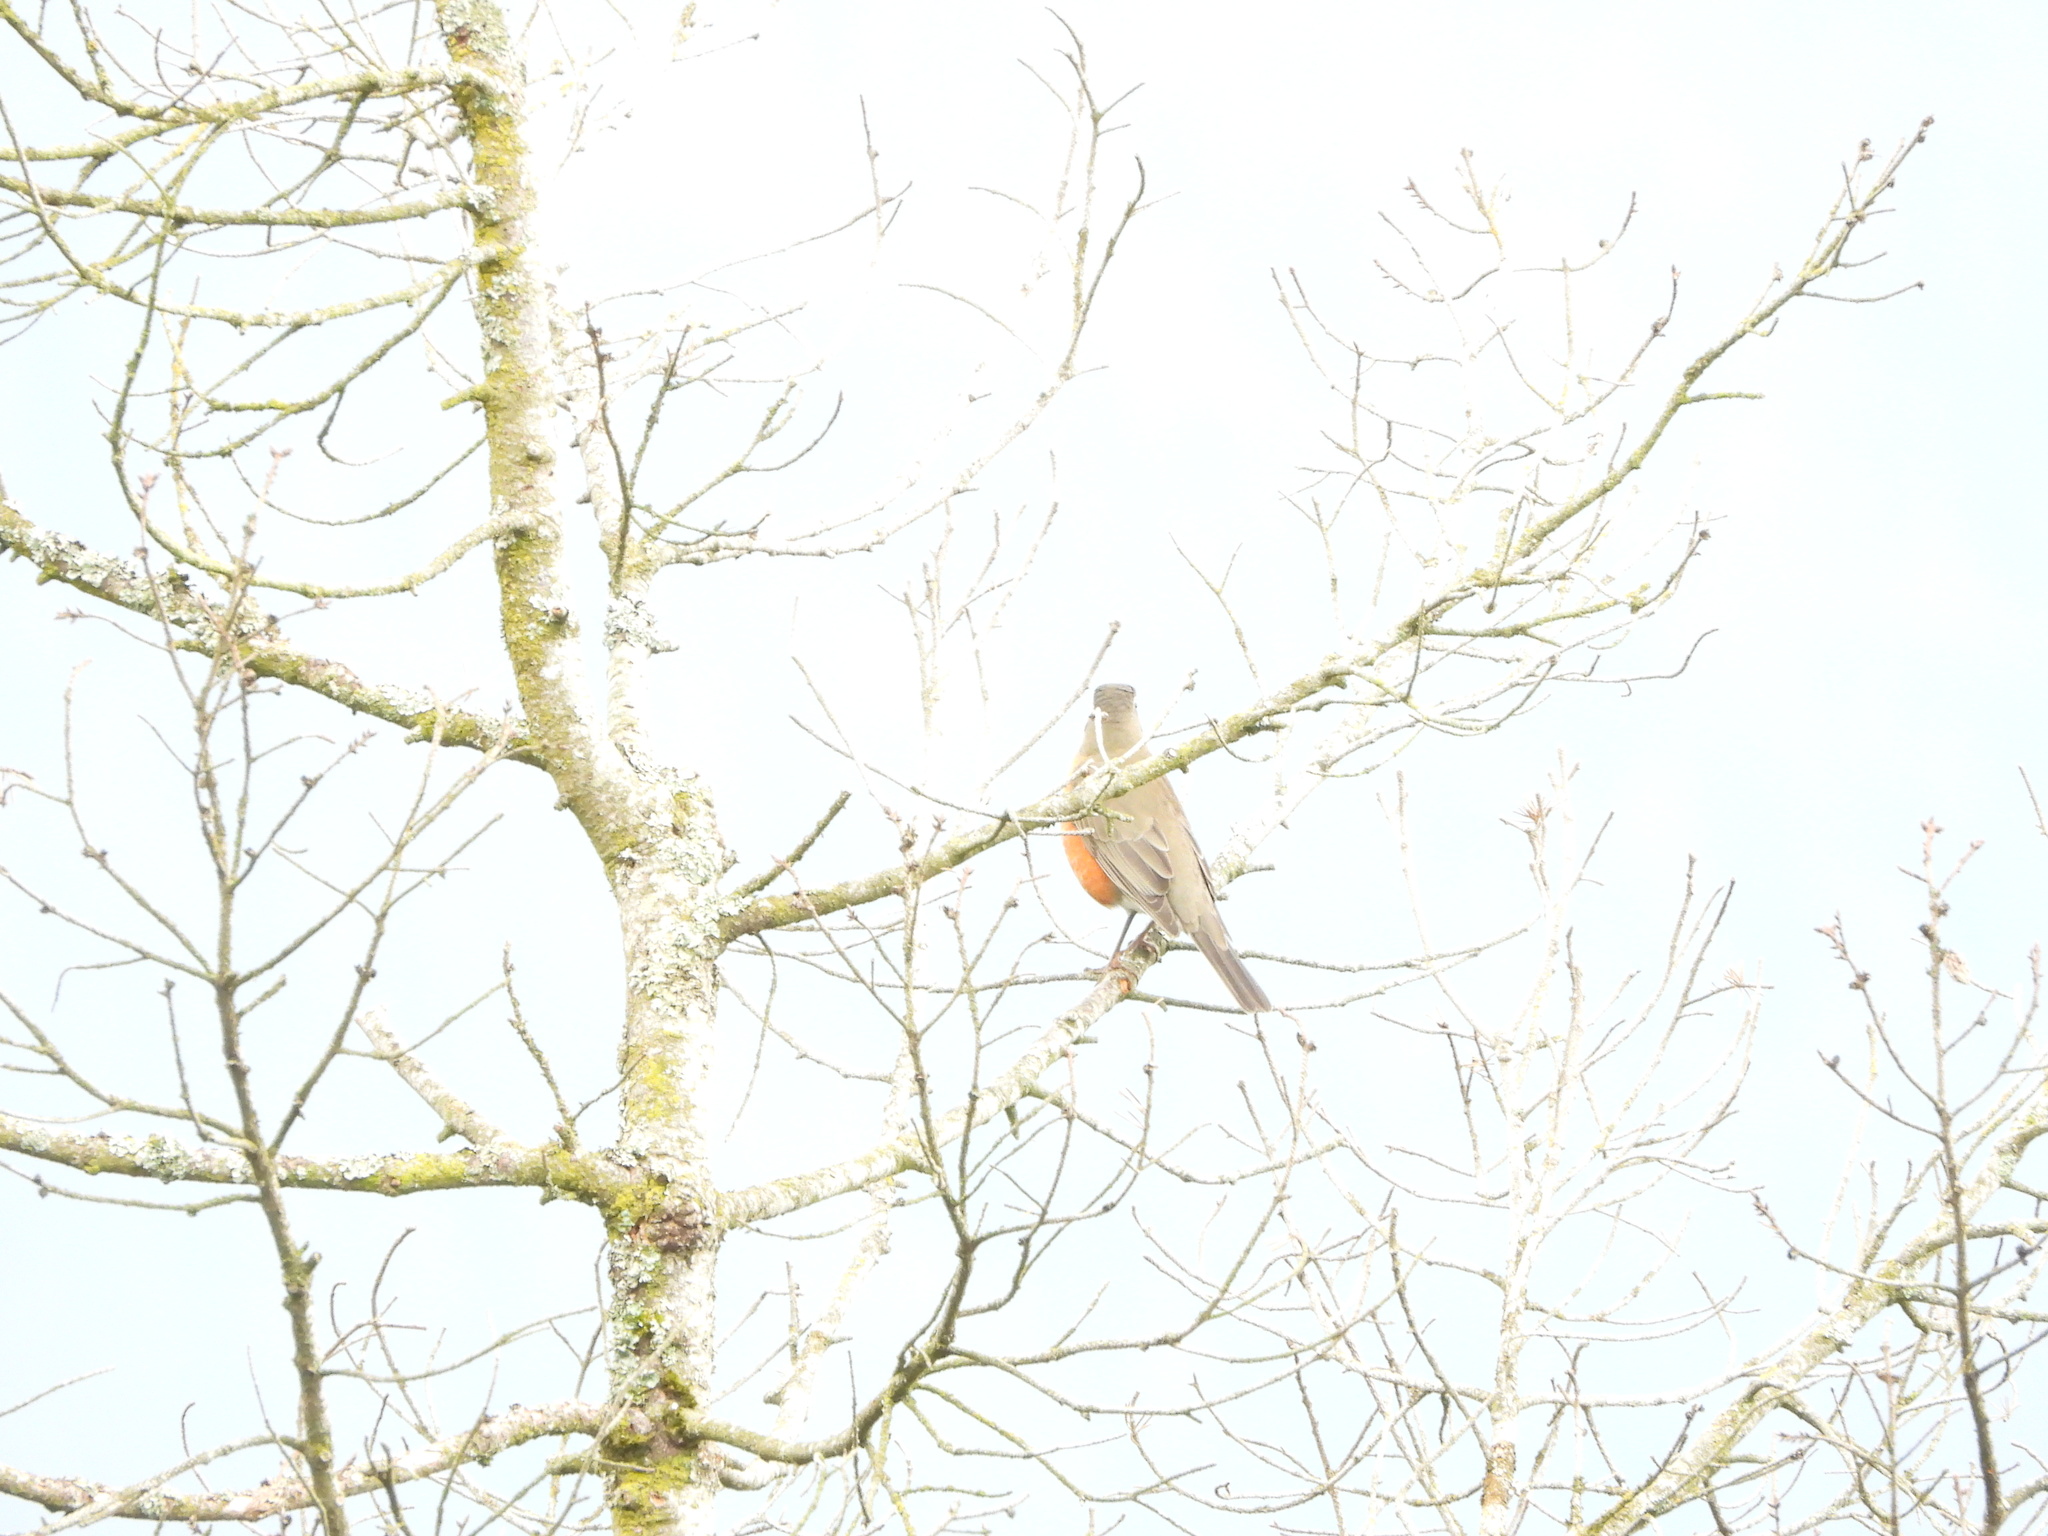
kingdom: Animalia
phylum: Chordata
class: Aves
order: Passeriformes
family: Turdidae
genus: Turdus
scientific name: Turdus migratorius
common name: American robin
